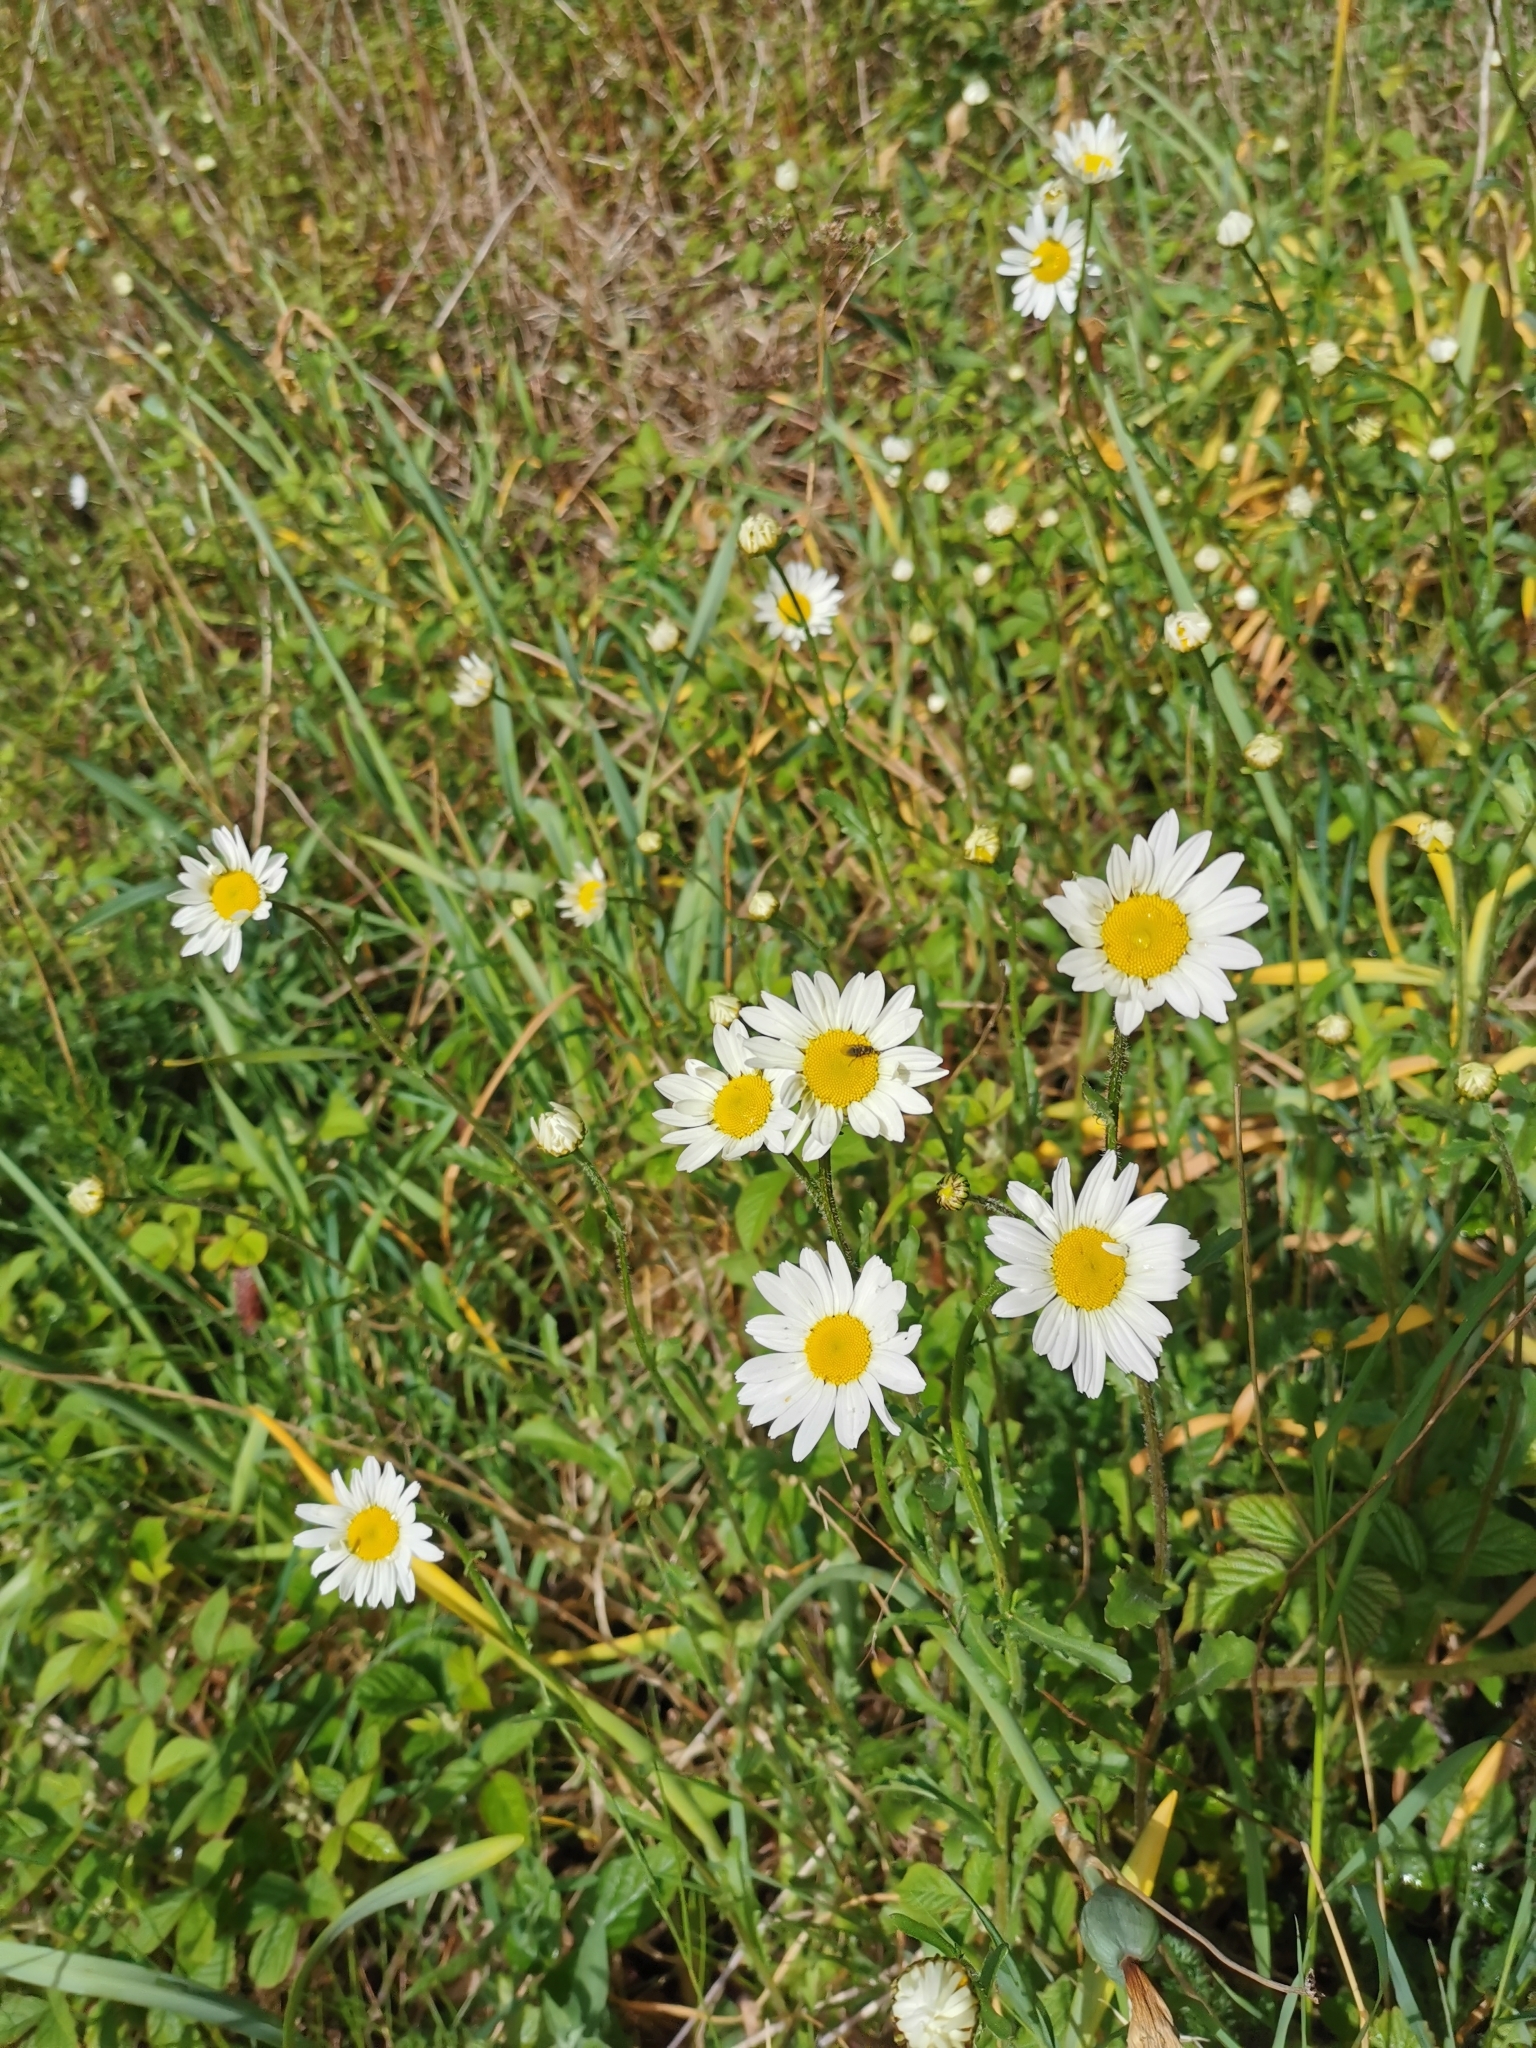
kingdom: Plantae
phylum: Tracheophyta
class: Magnoliopsida
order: Asterales
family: Asteraceae
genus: Leucanthemum
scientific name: Leucanthemum vulgare
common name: Oxeye daisy
